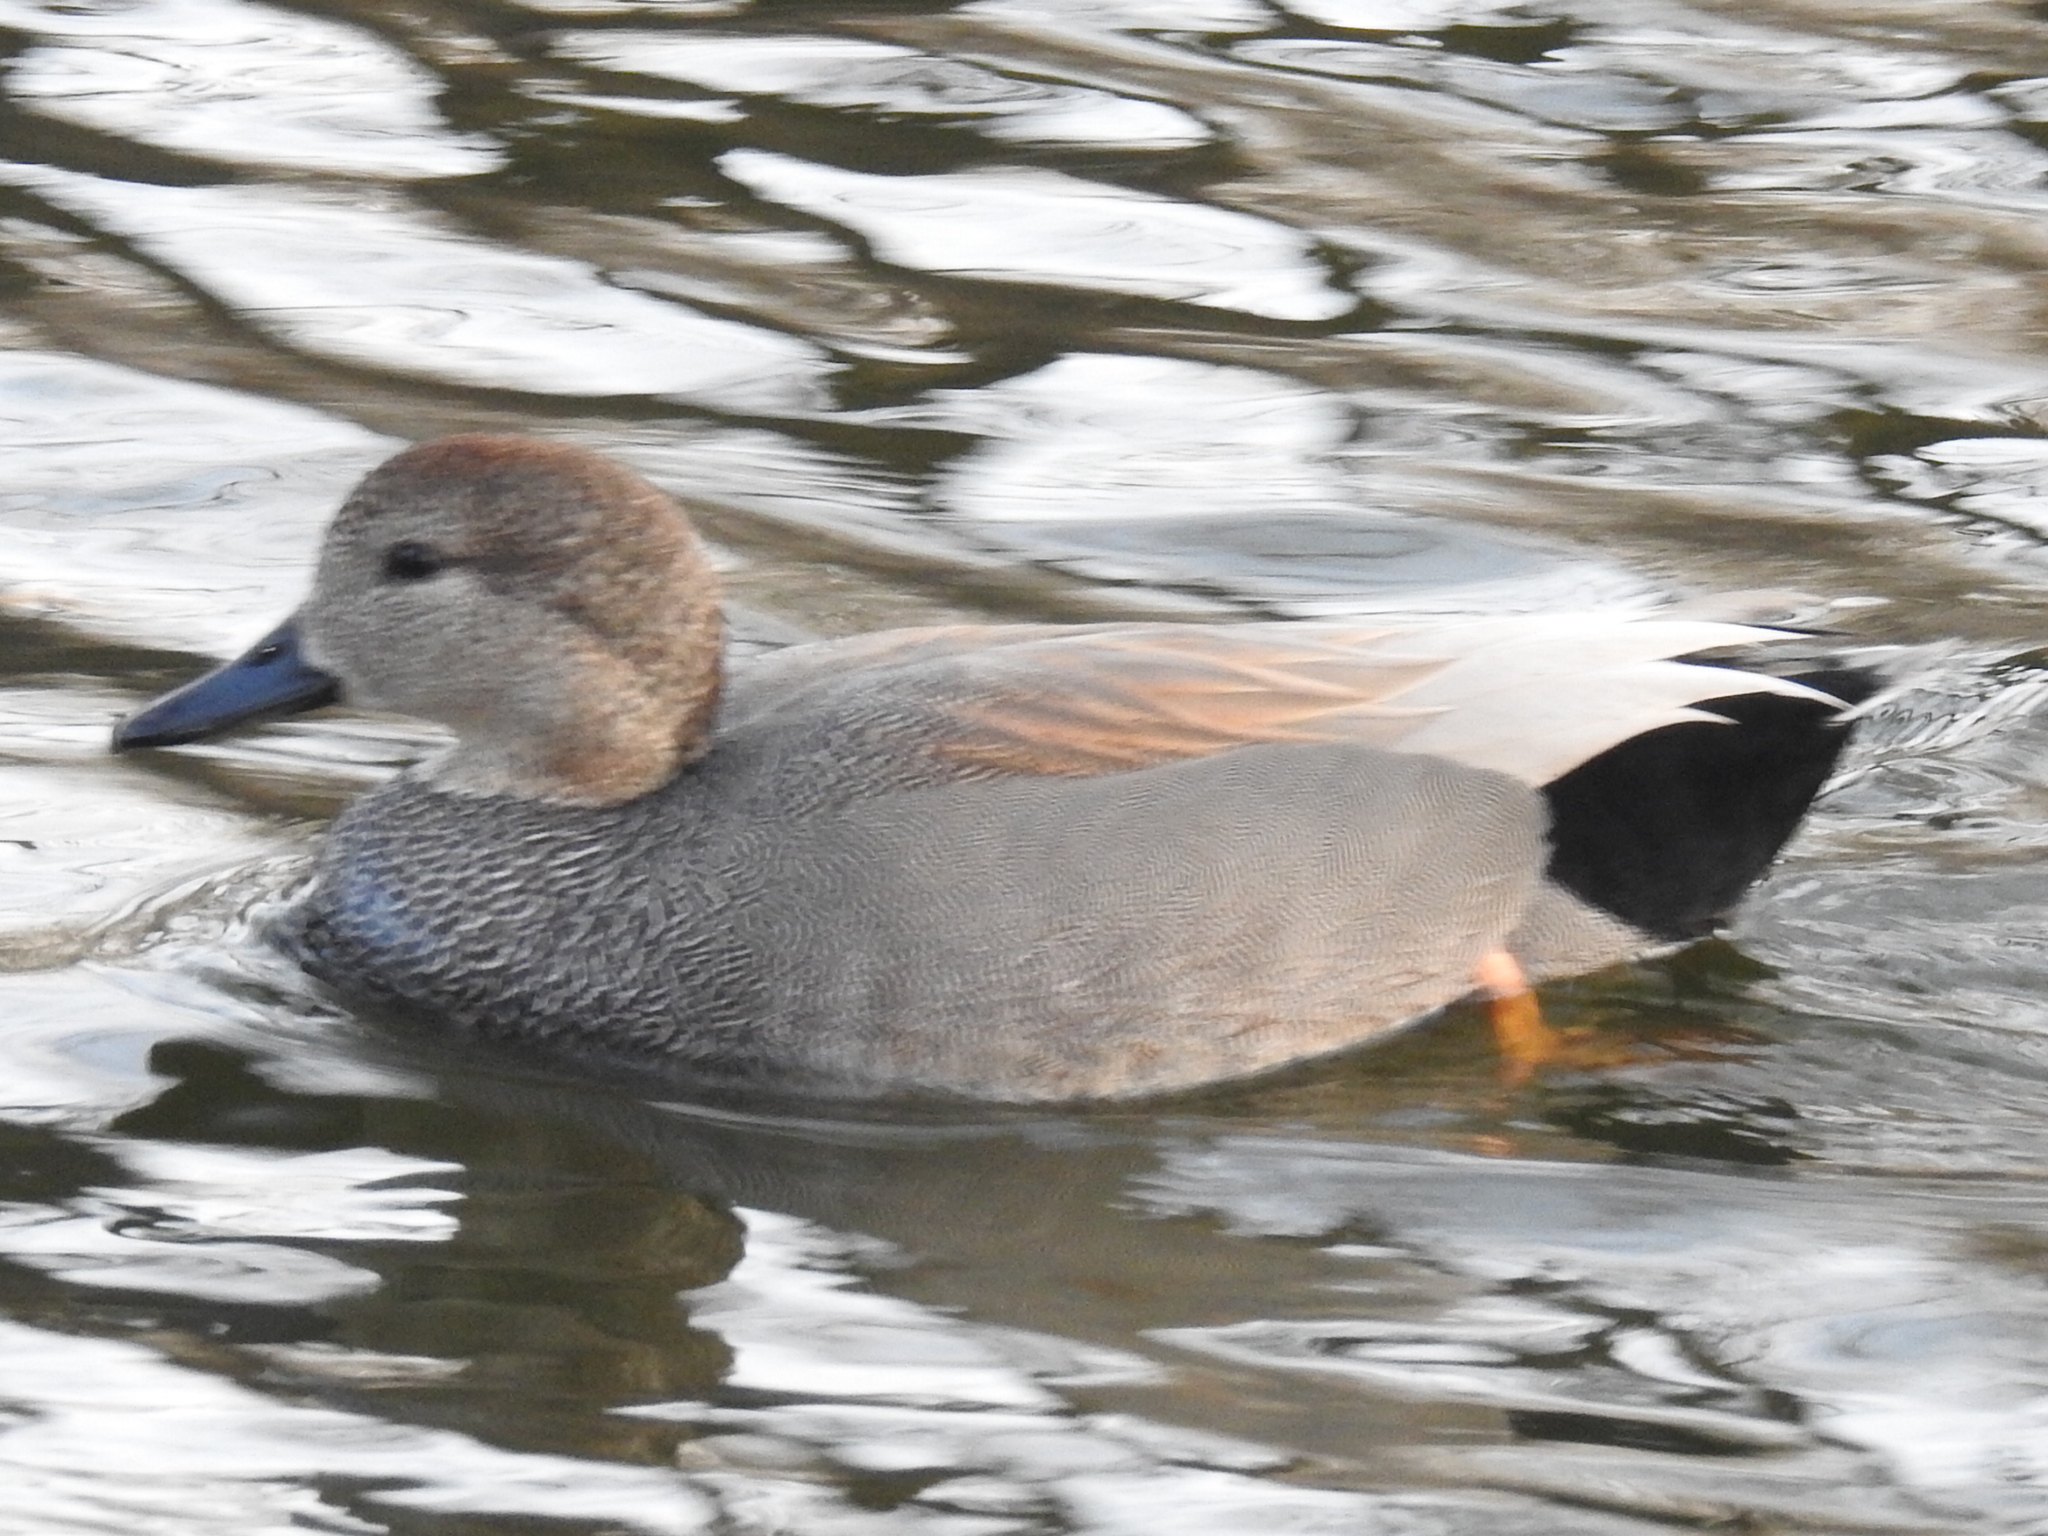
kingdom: Animalia
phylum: Chordata
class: Aves
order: Anseriformes
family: Anatidae
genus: Mareca
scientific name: Mareca strepera
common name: Gadwall
